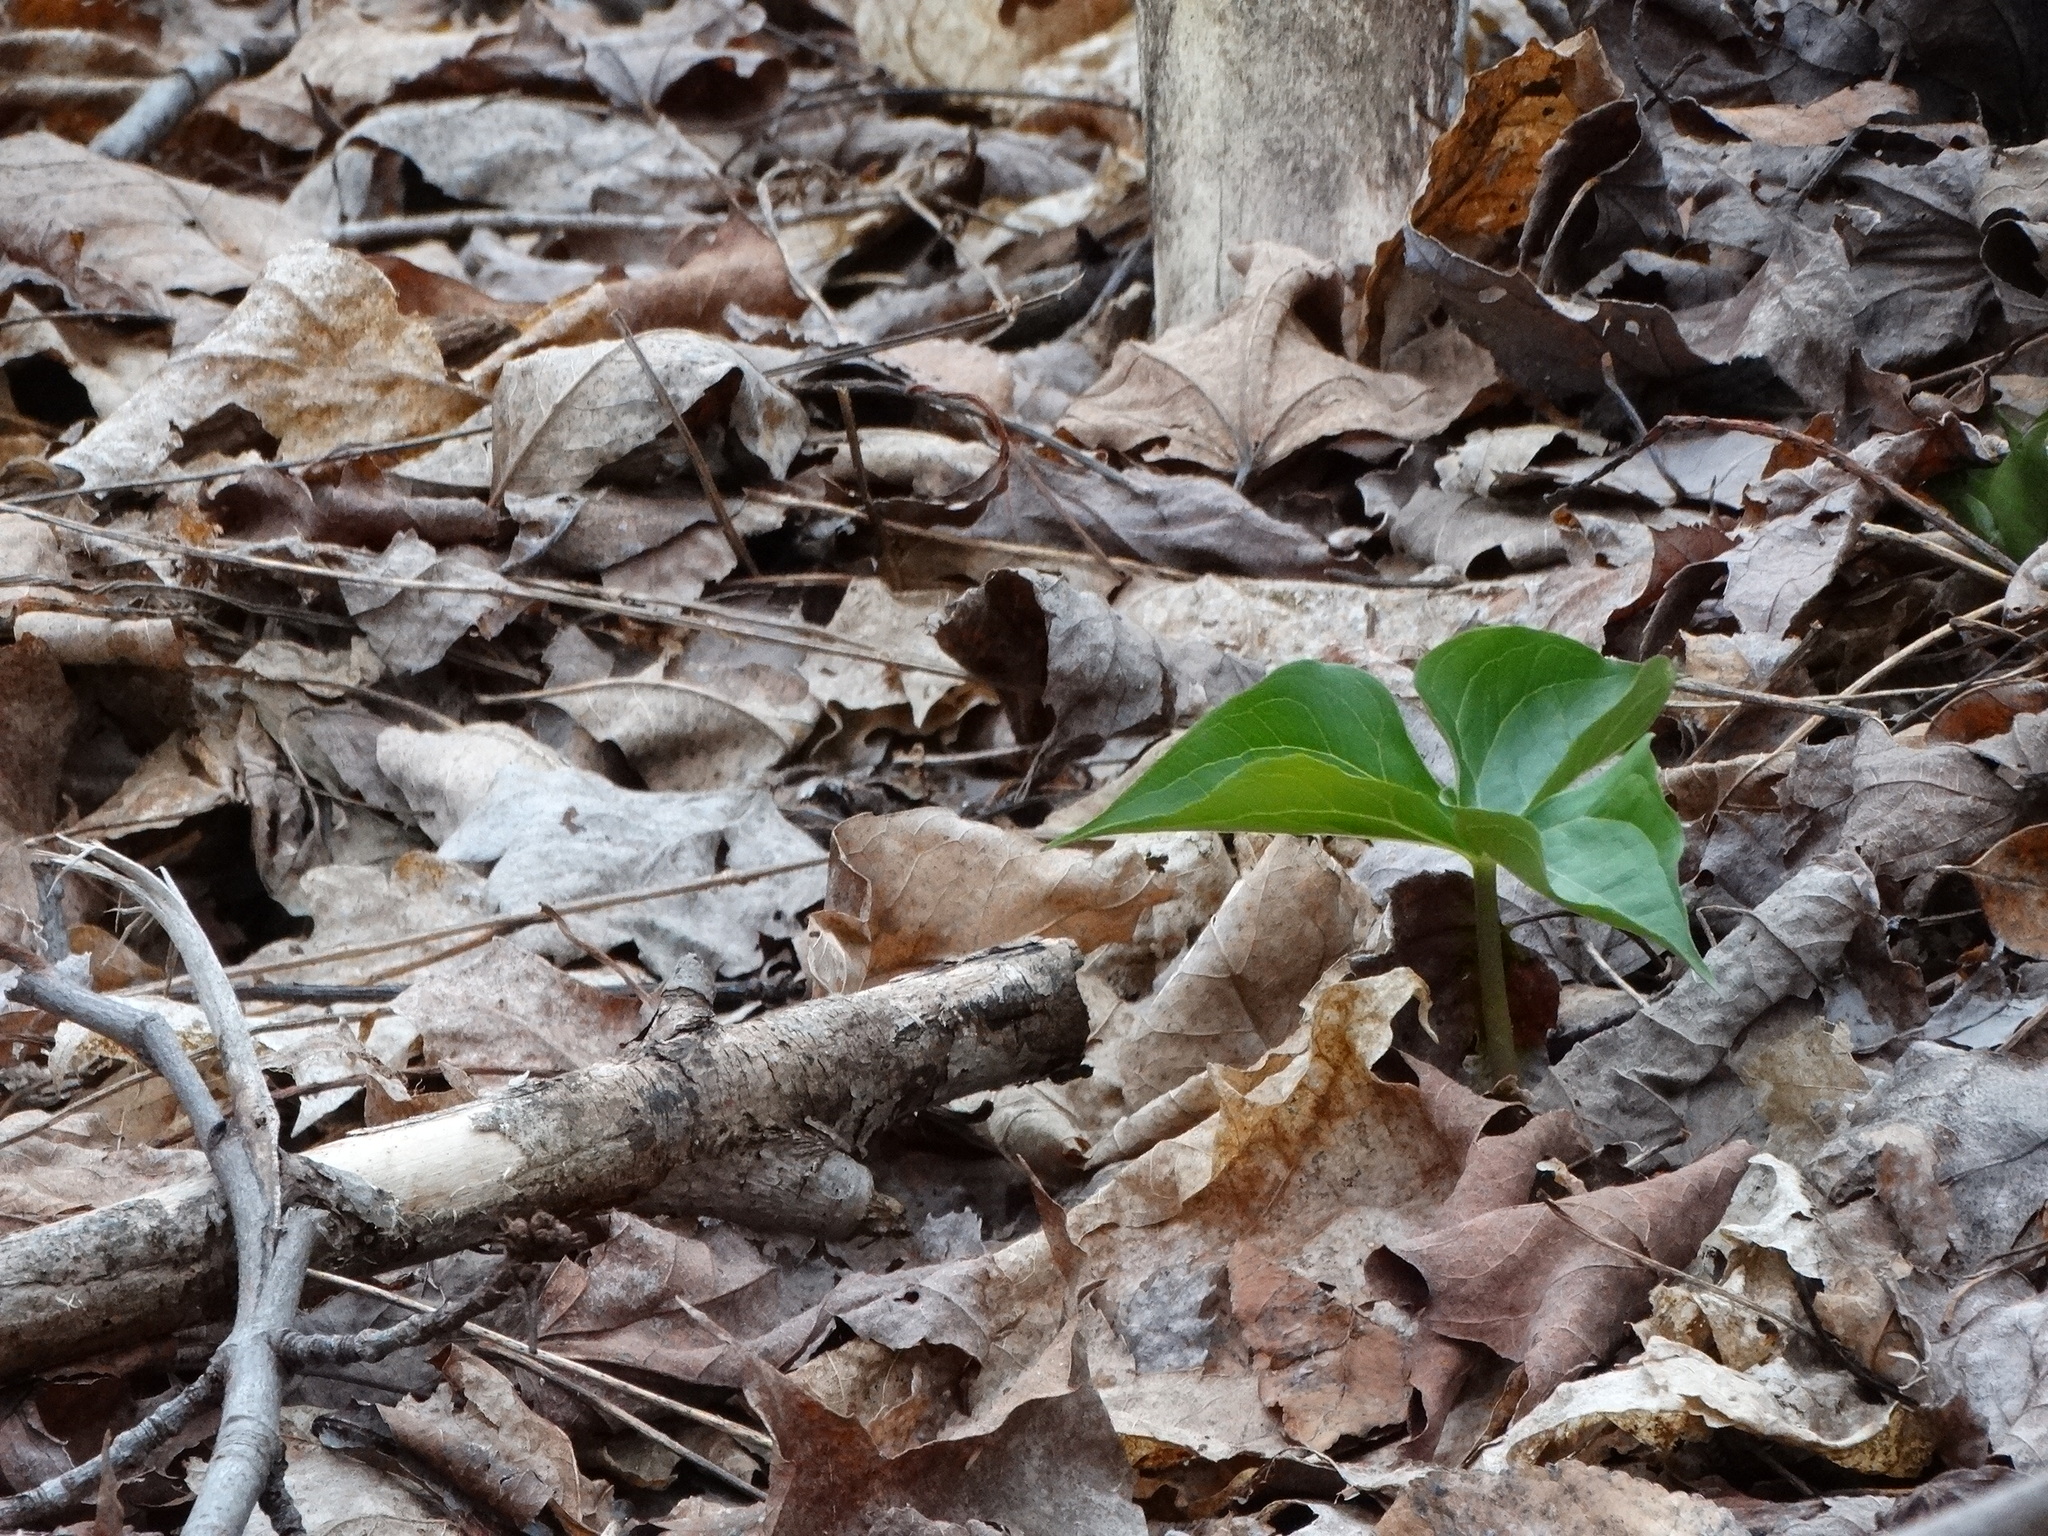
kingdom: Plantae
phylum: Tracheophyta
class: Liliopsida
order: Liliales
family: Melanthiaceae
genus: Trillium
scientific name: Trillium erectum
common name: Purple trillium
